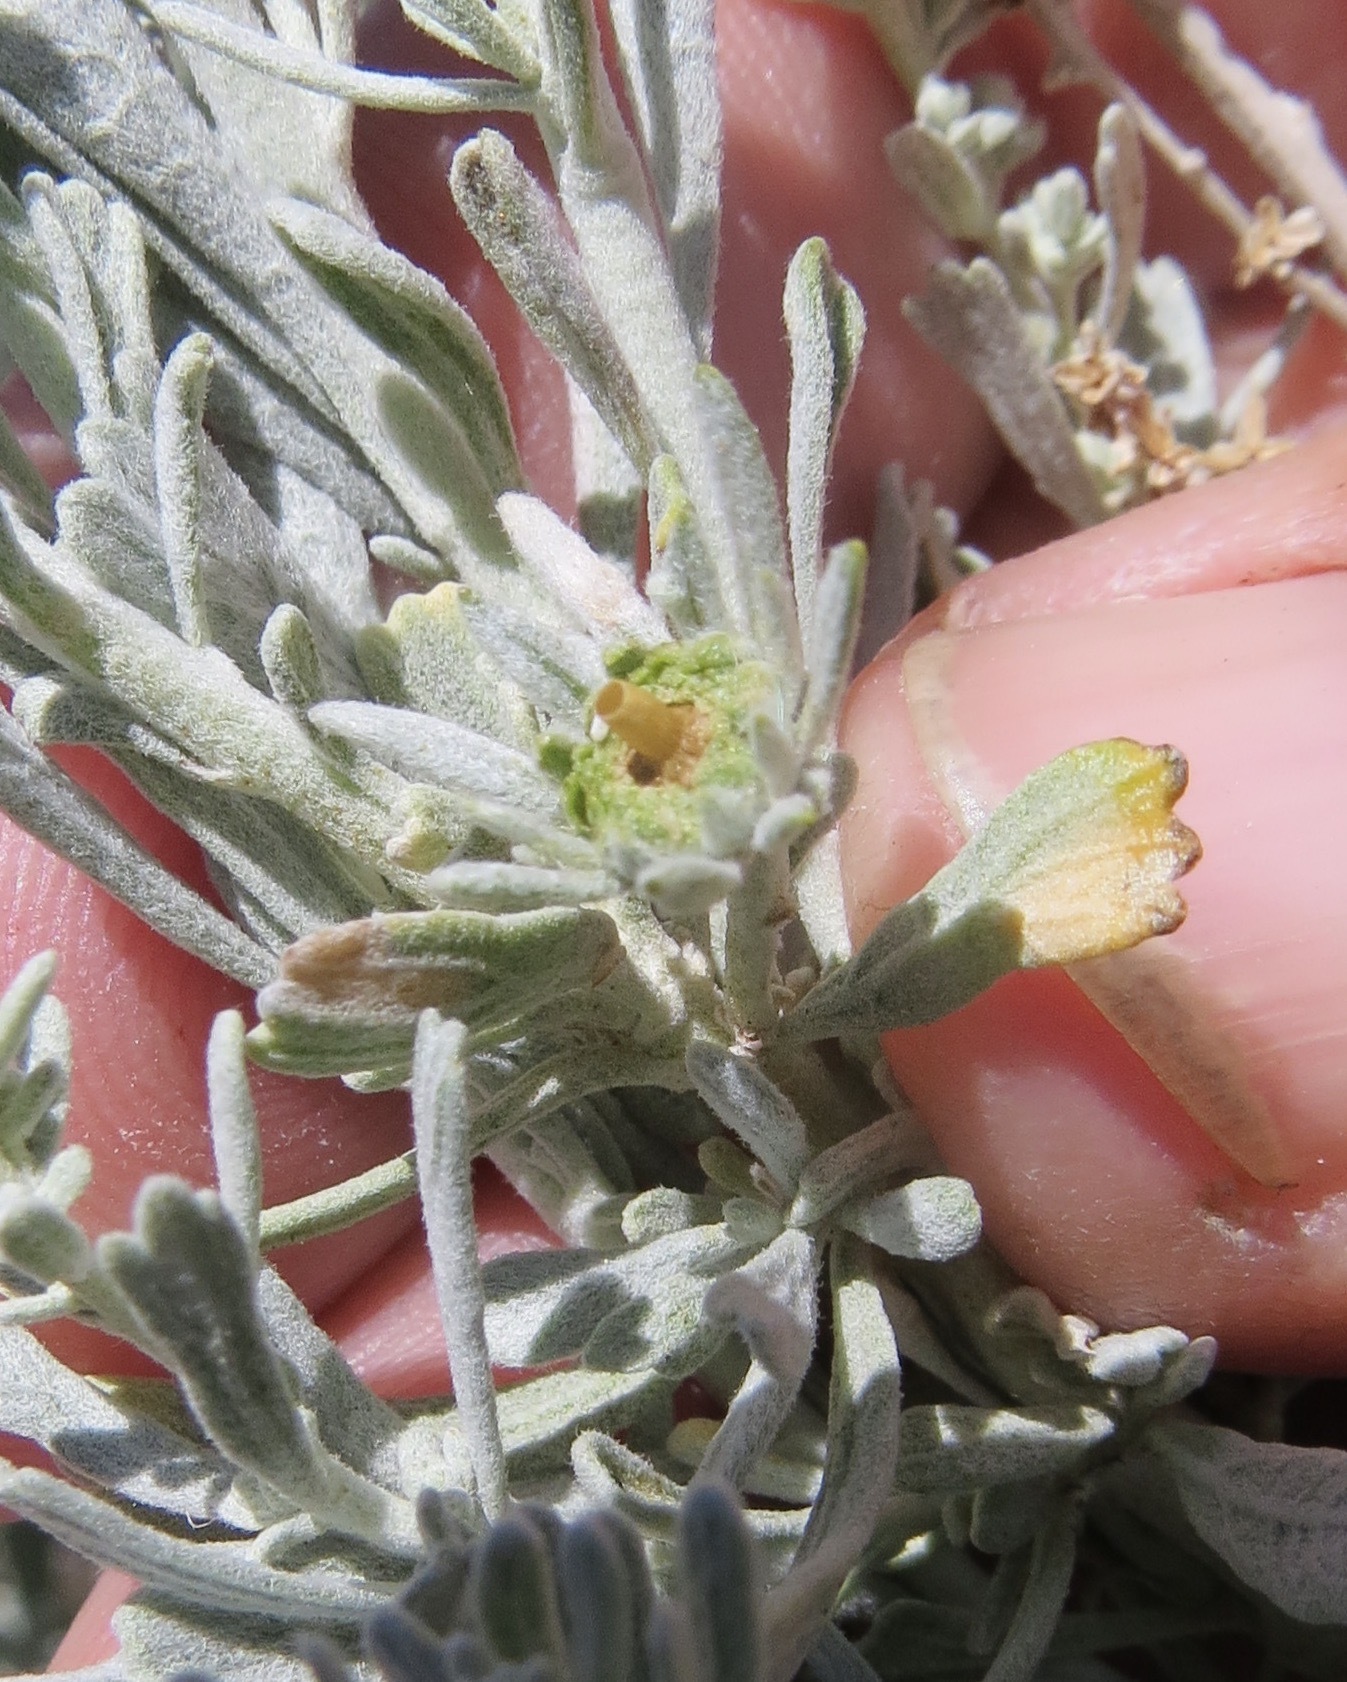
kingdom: Animalia
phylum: Arthropoda
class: Insecta
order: Diptera
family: Cecidomyiidae
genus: Rhopalomyia
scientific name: Rhopalomyia conica
